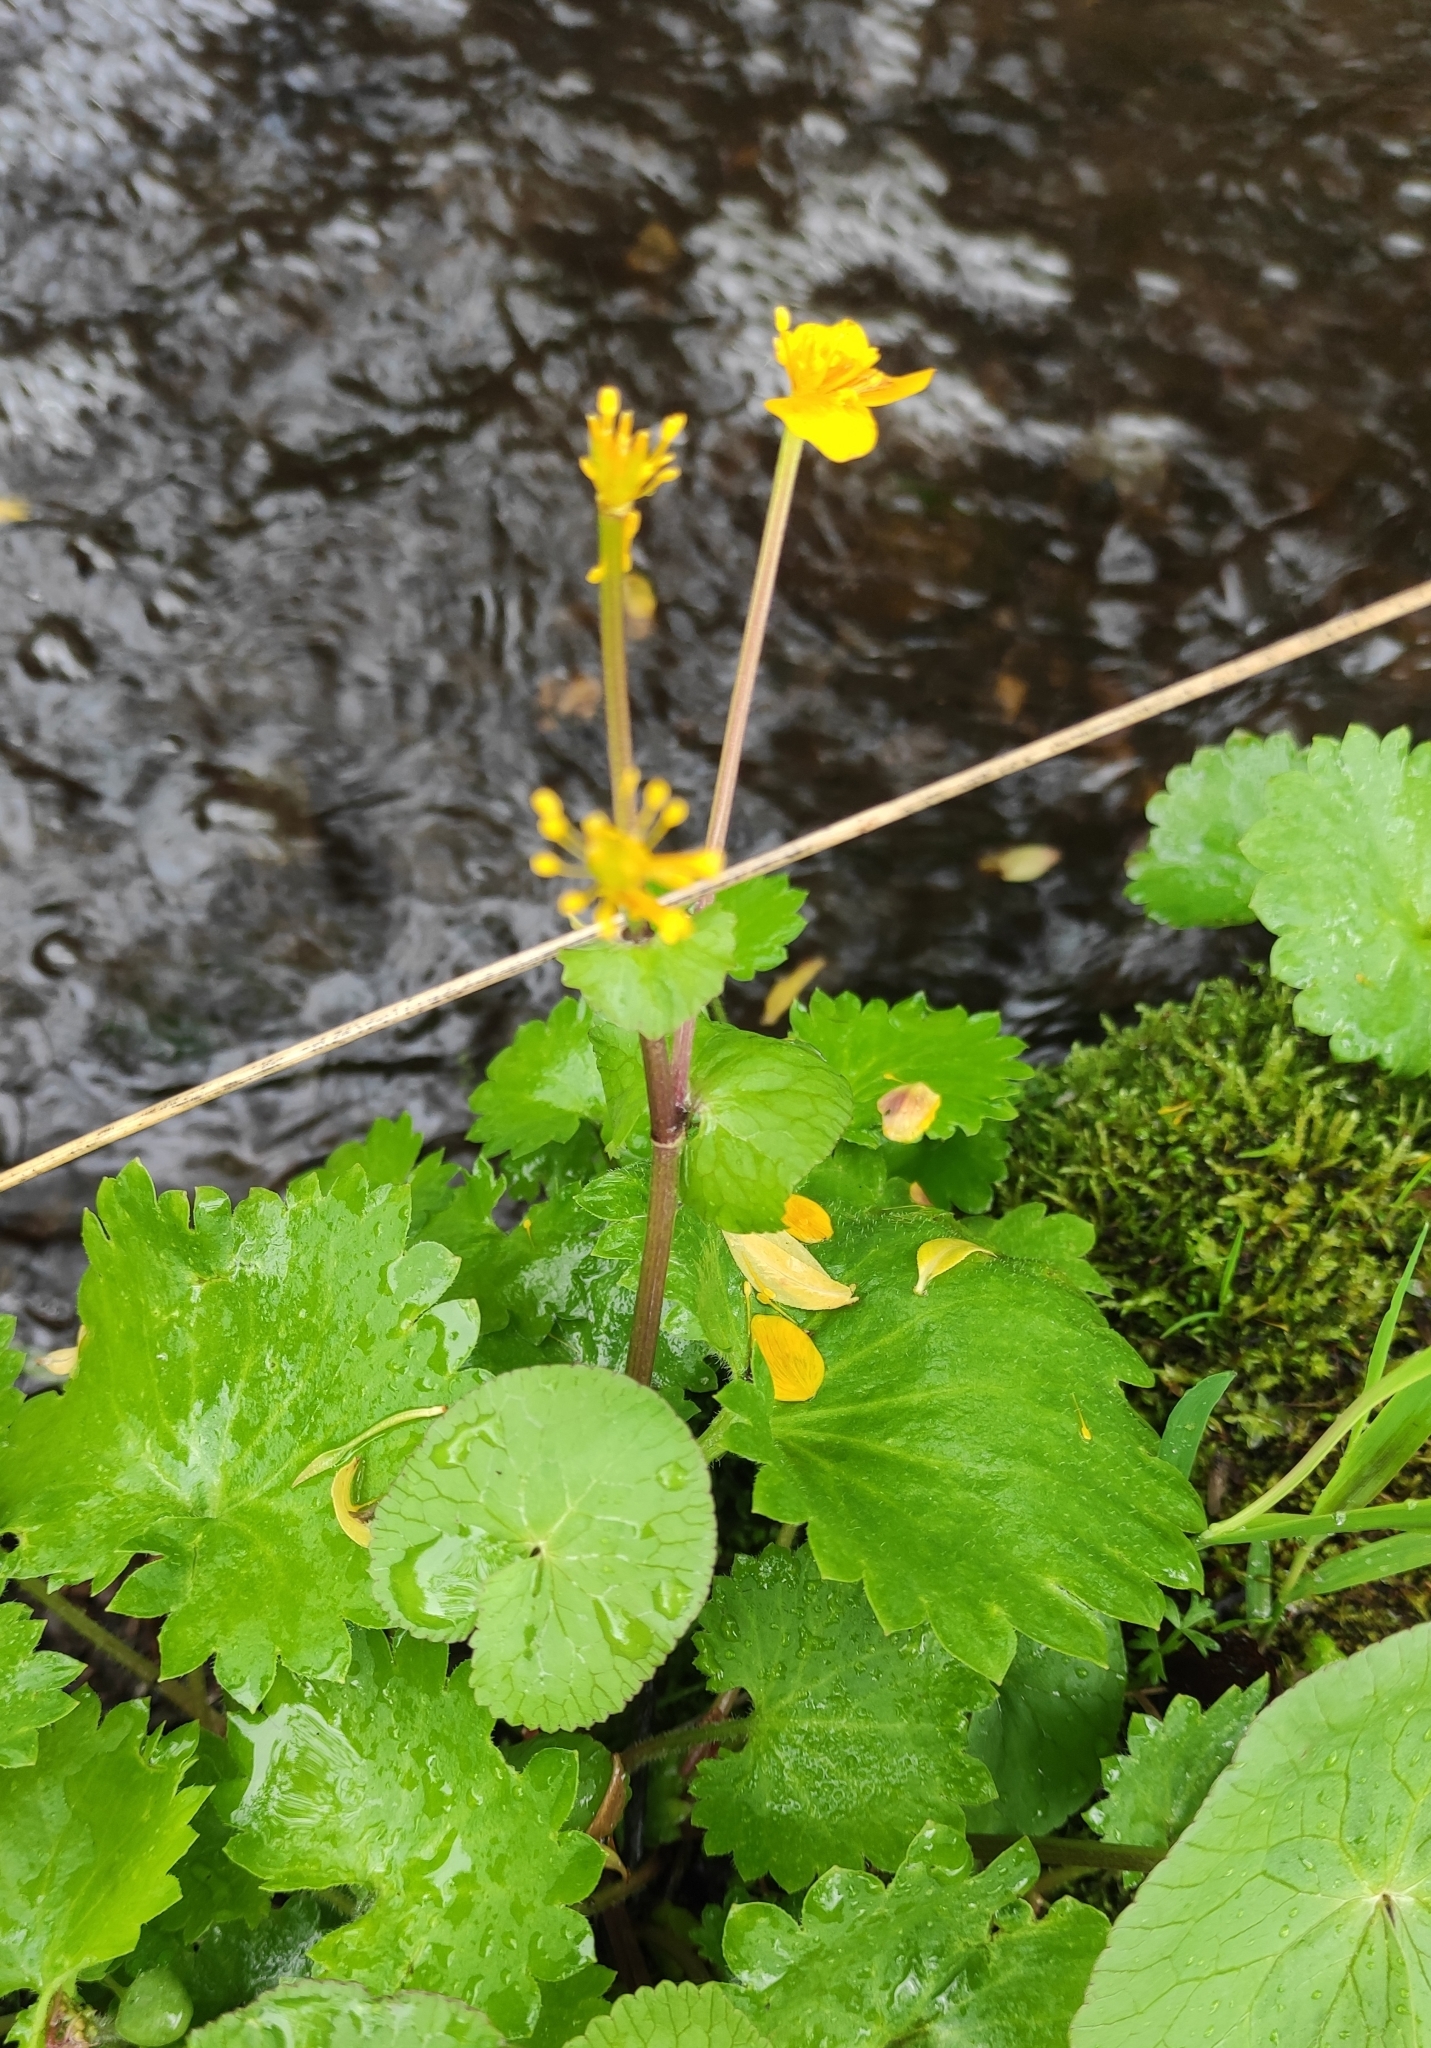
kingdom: Plantae
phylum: Tracheophyta
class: Magnoliopsida
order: Ranunculales
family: Ranunculaceae
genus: Caltha
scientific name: Caltha palustris
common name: Marsh marigold
